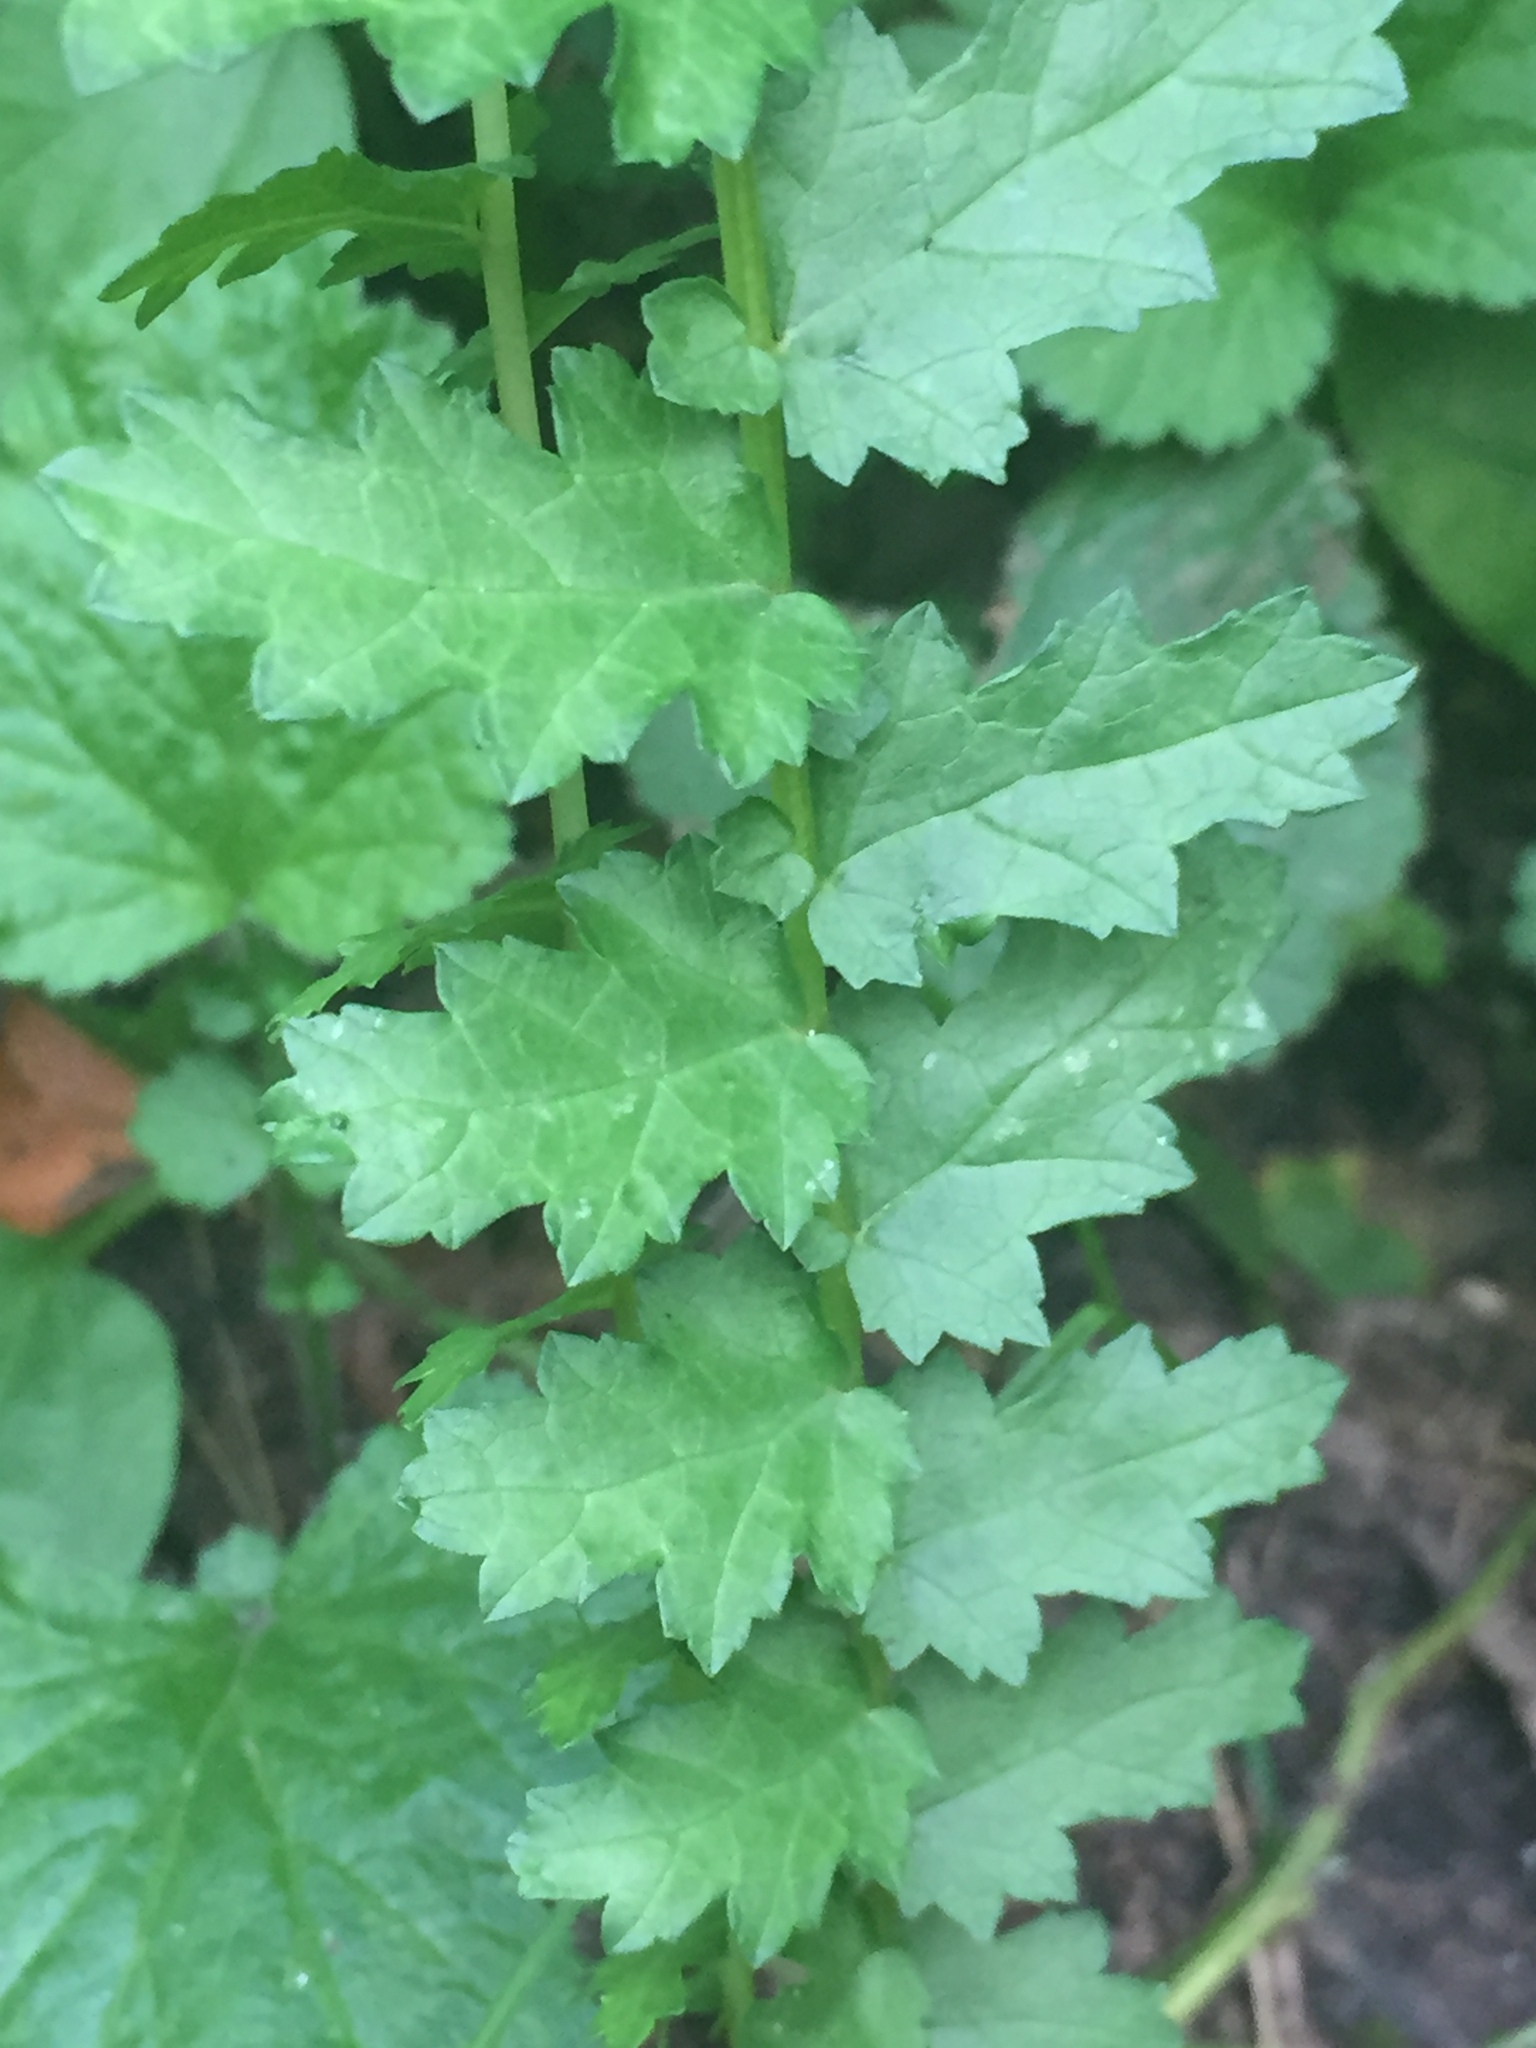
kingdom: Plantae
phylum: Tracheophyta
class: Magnoliopsida
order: Rosales
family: Rosaceae
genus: Filipendula
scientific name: Filipendula vulgaris
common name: Dropwort
